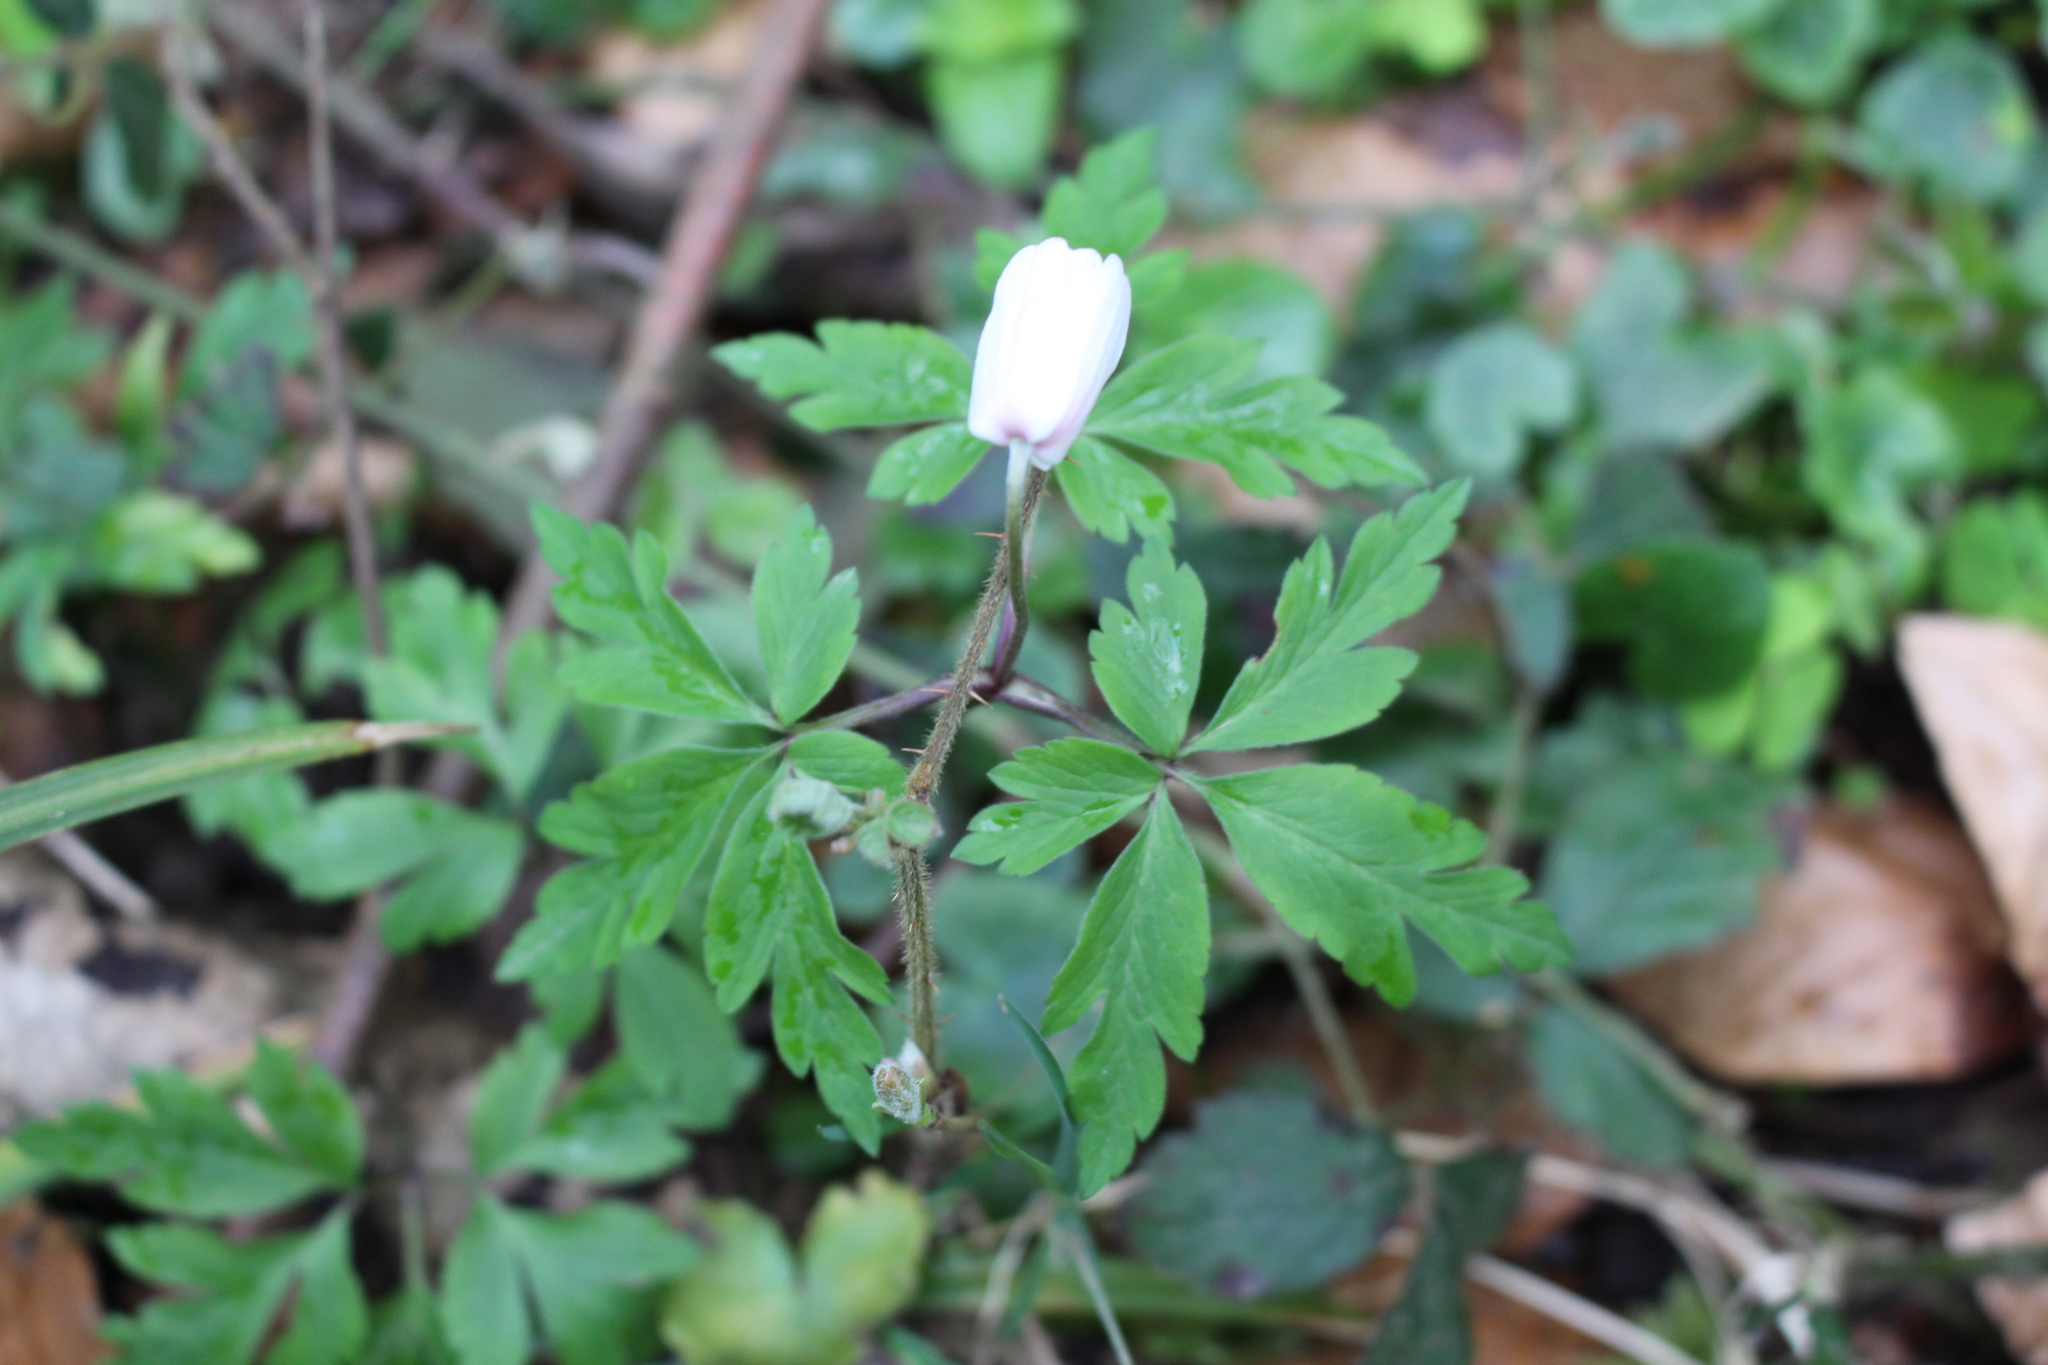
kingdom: Plantae
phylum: Tracheophyta
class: Magnoliopsida
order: Ranunculales
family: Ranunculaceae
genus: Anemone
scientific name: Anemone nemorosa
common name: Wood anemone
